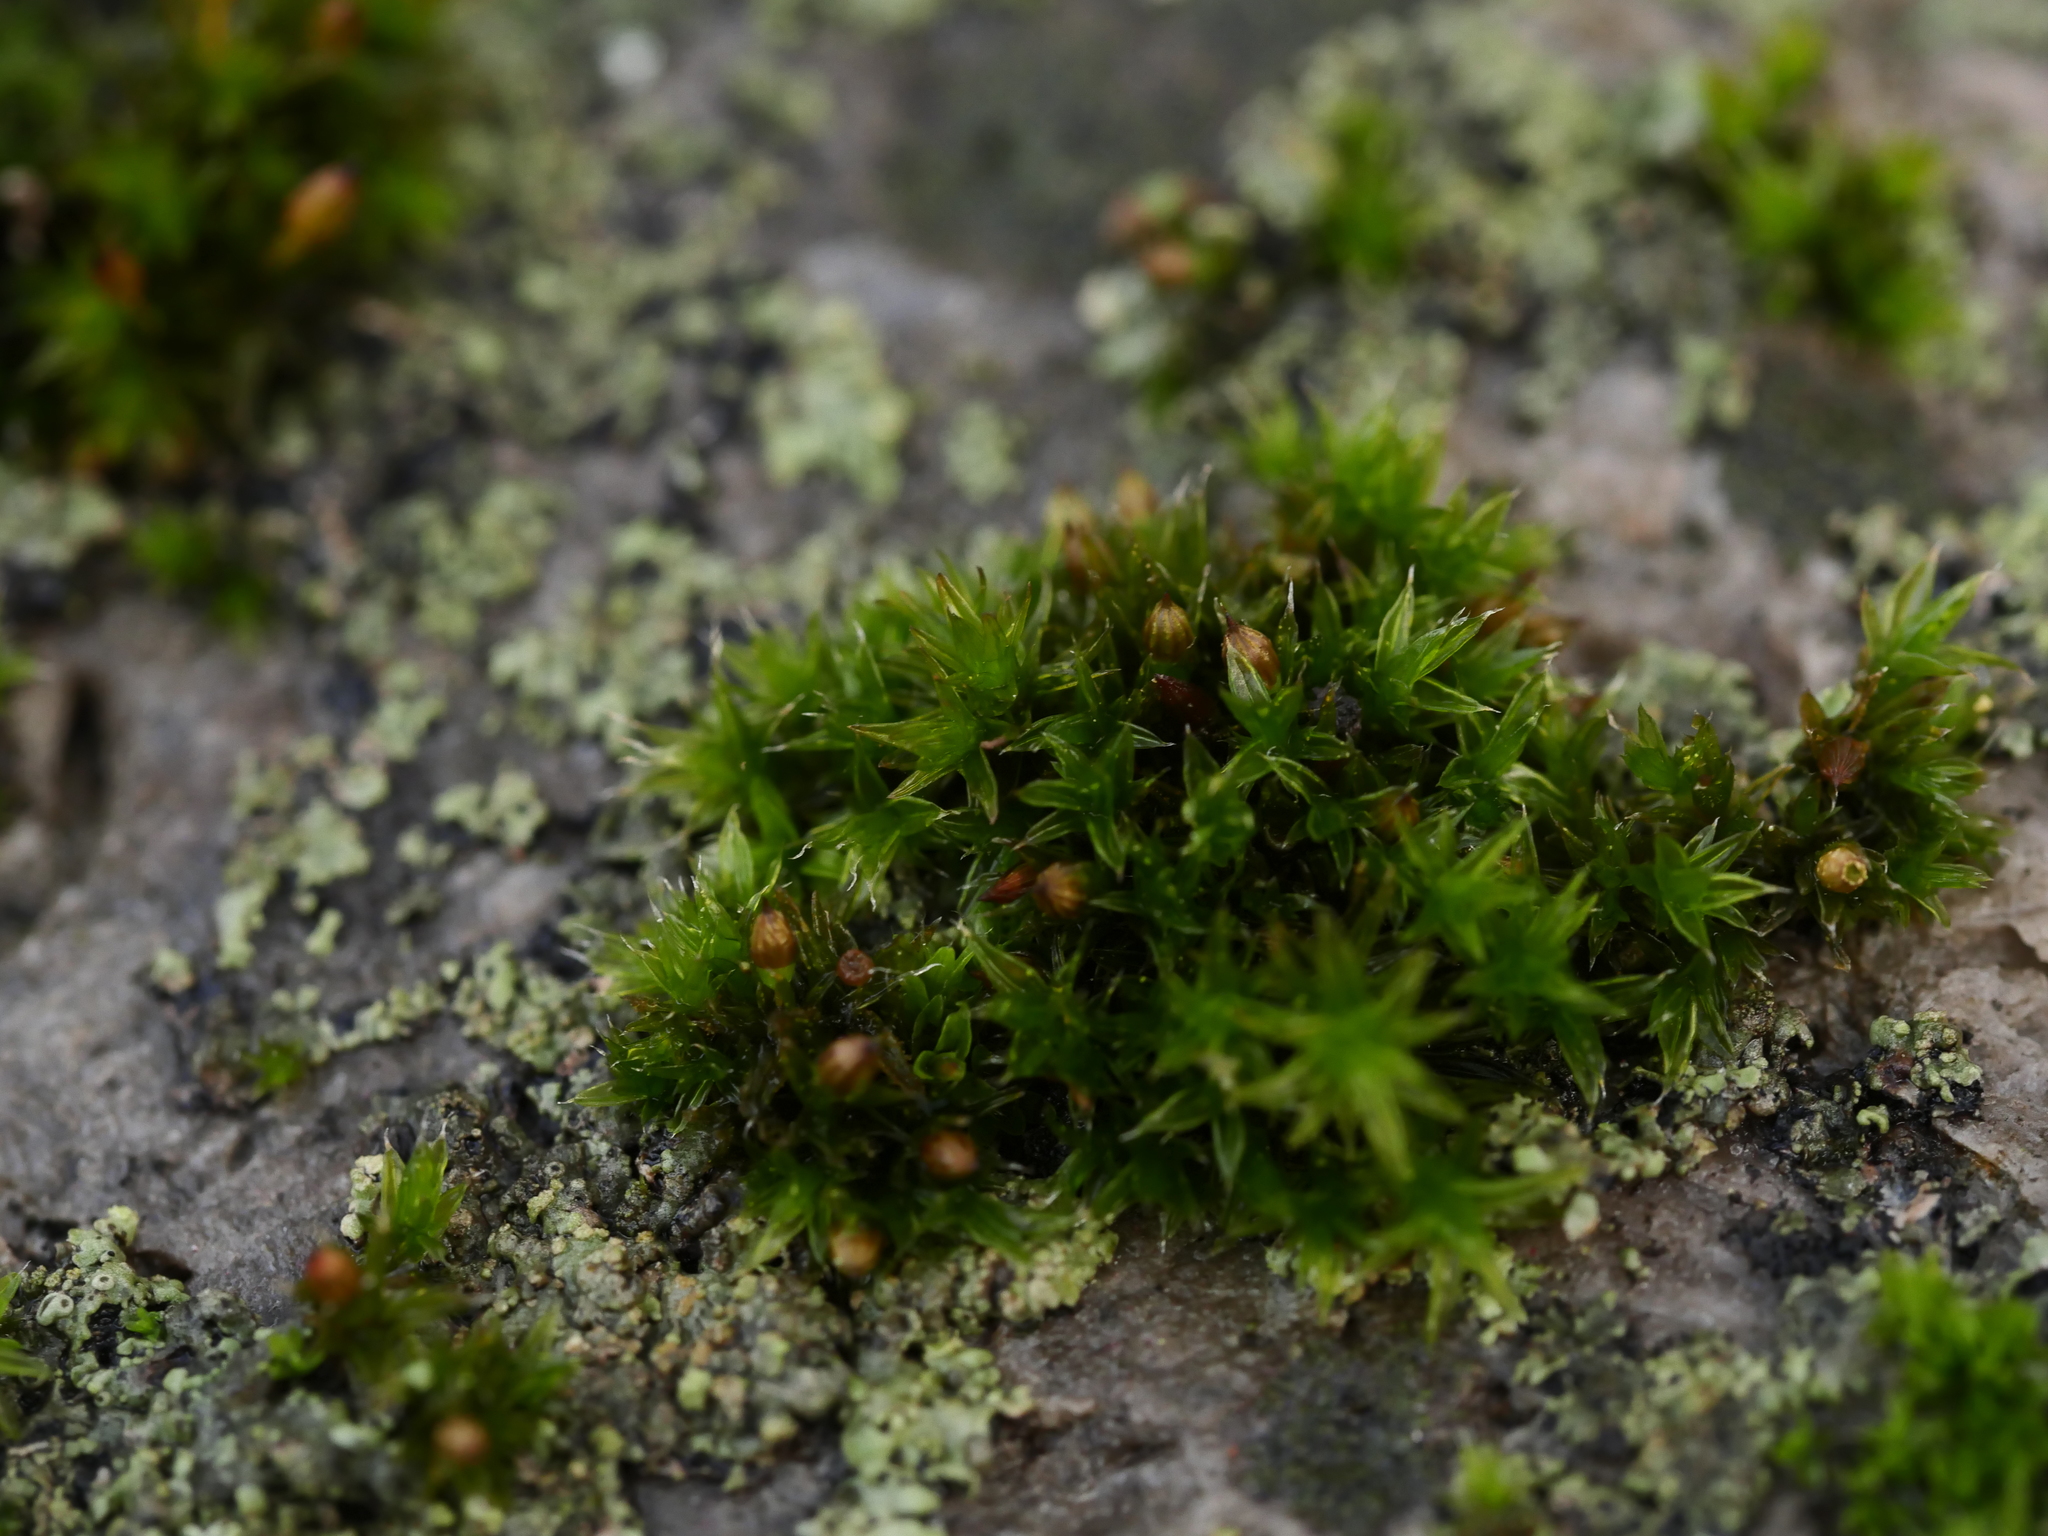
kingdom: Plantae
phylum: Bryophyta
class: Bryopsida
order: Orthotrichales
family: Orthotrichaceae
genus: Orthotrichum
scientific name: Orthotrichum diaphanum
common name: White-tipped bristle-moss
